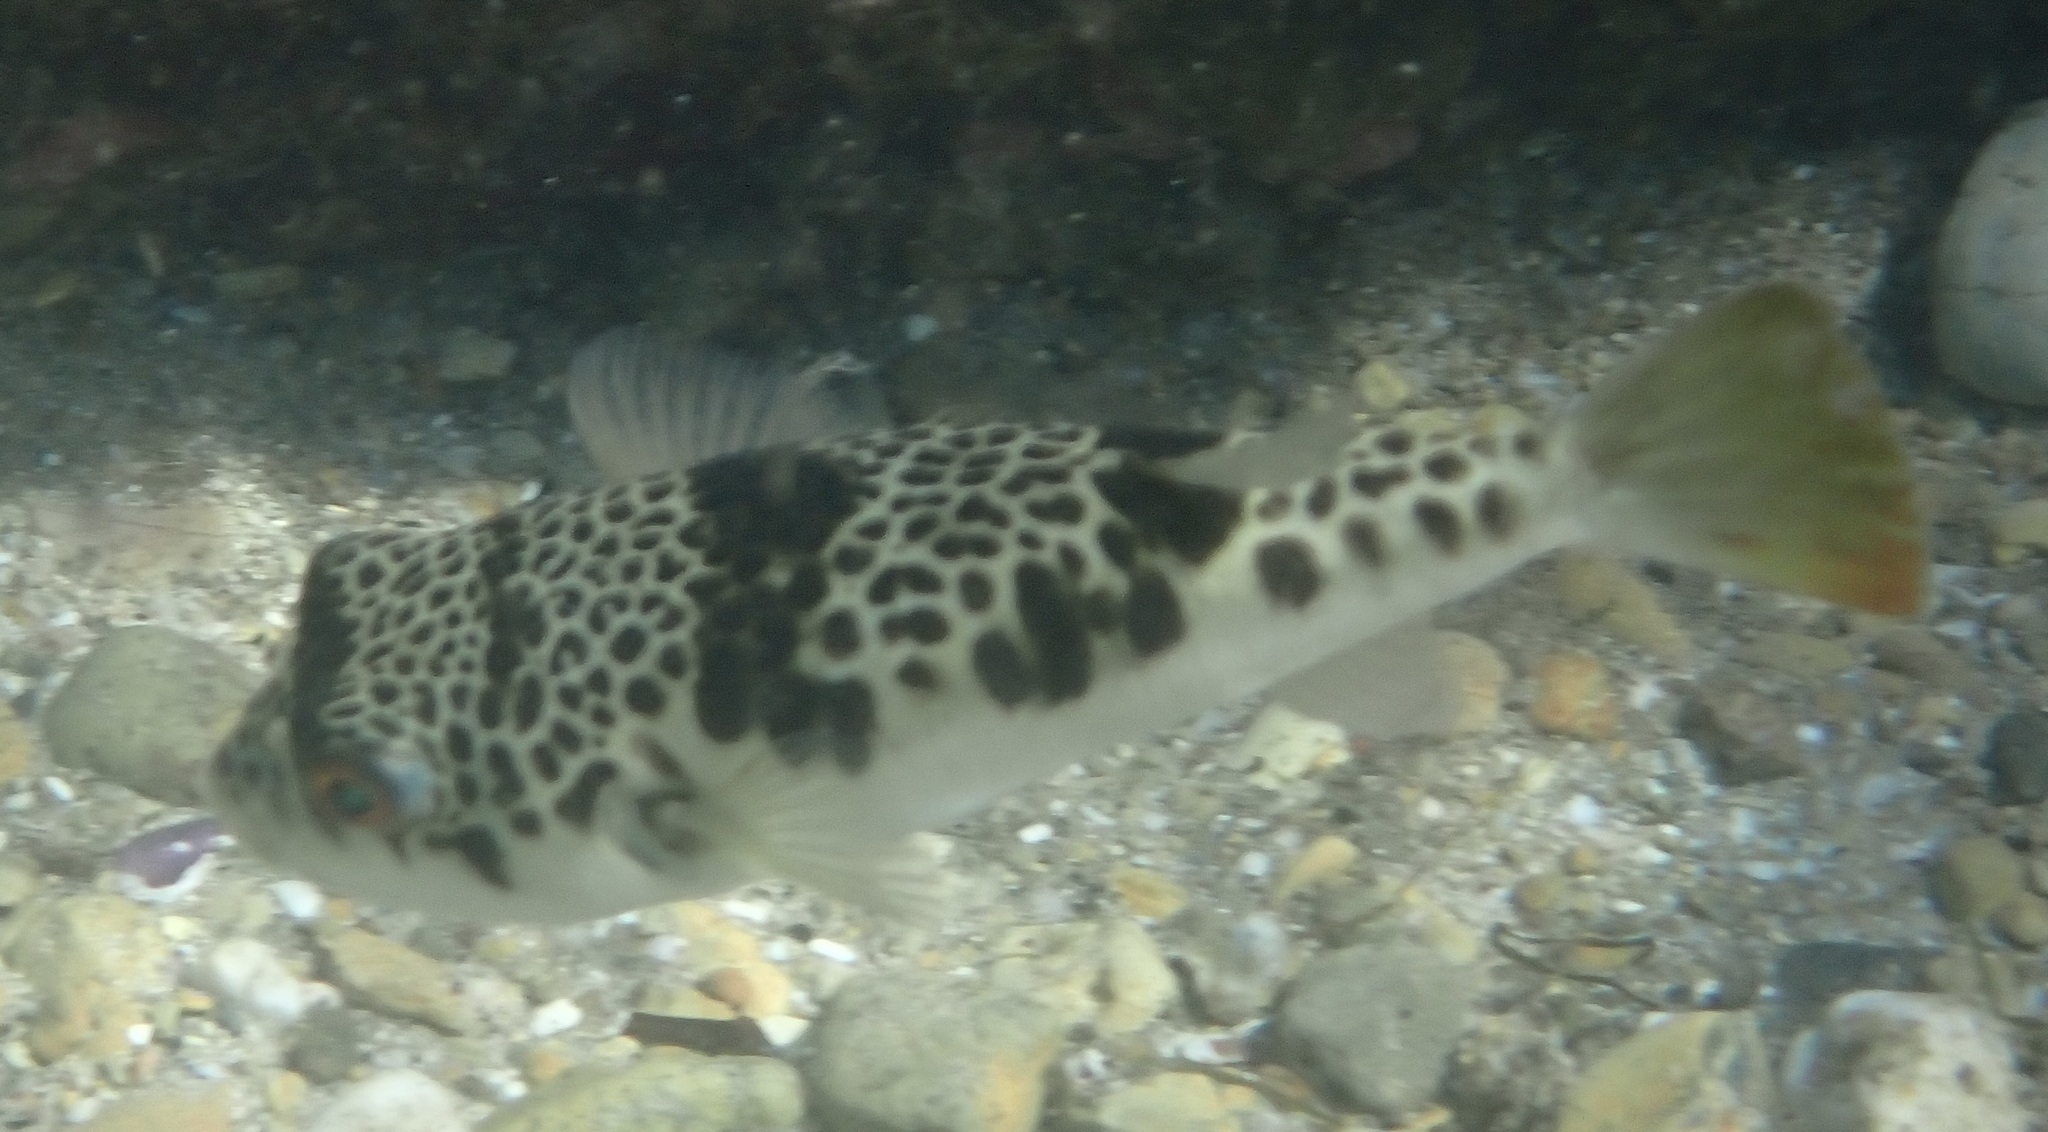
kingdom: Animalia
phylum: Chordata
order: Tetraodontiformes
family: Tetraodontidae
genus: Tetractenos
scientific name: Tetractenos glaber
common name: Smooth toadfish
